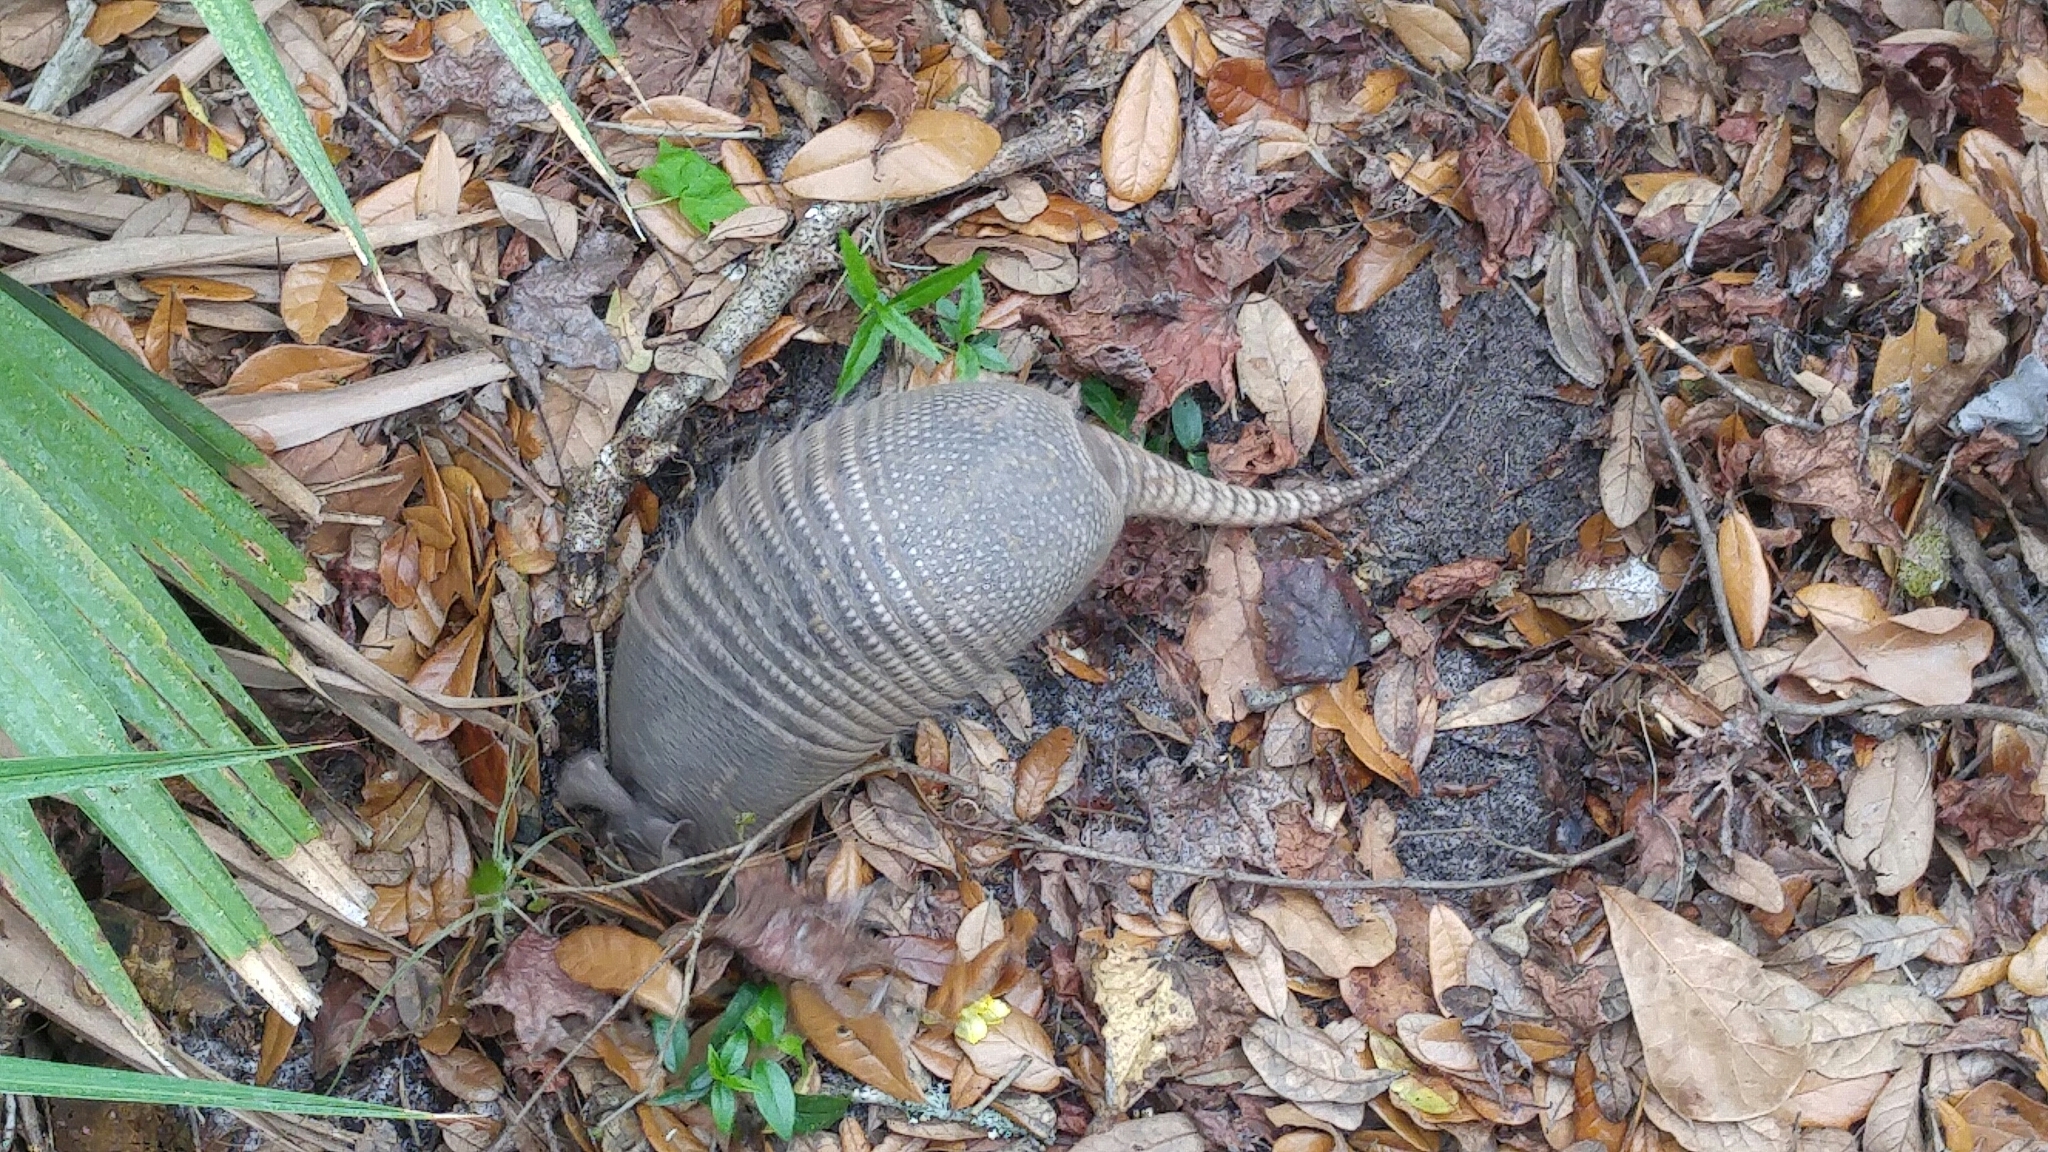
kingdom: Animalia
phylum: Chordata
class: Mammalia
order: Cingulata
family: Dasypodidae
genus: Dasypus
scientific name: Dasypus novemcinctus
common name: Nine-banded armadillo
